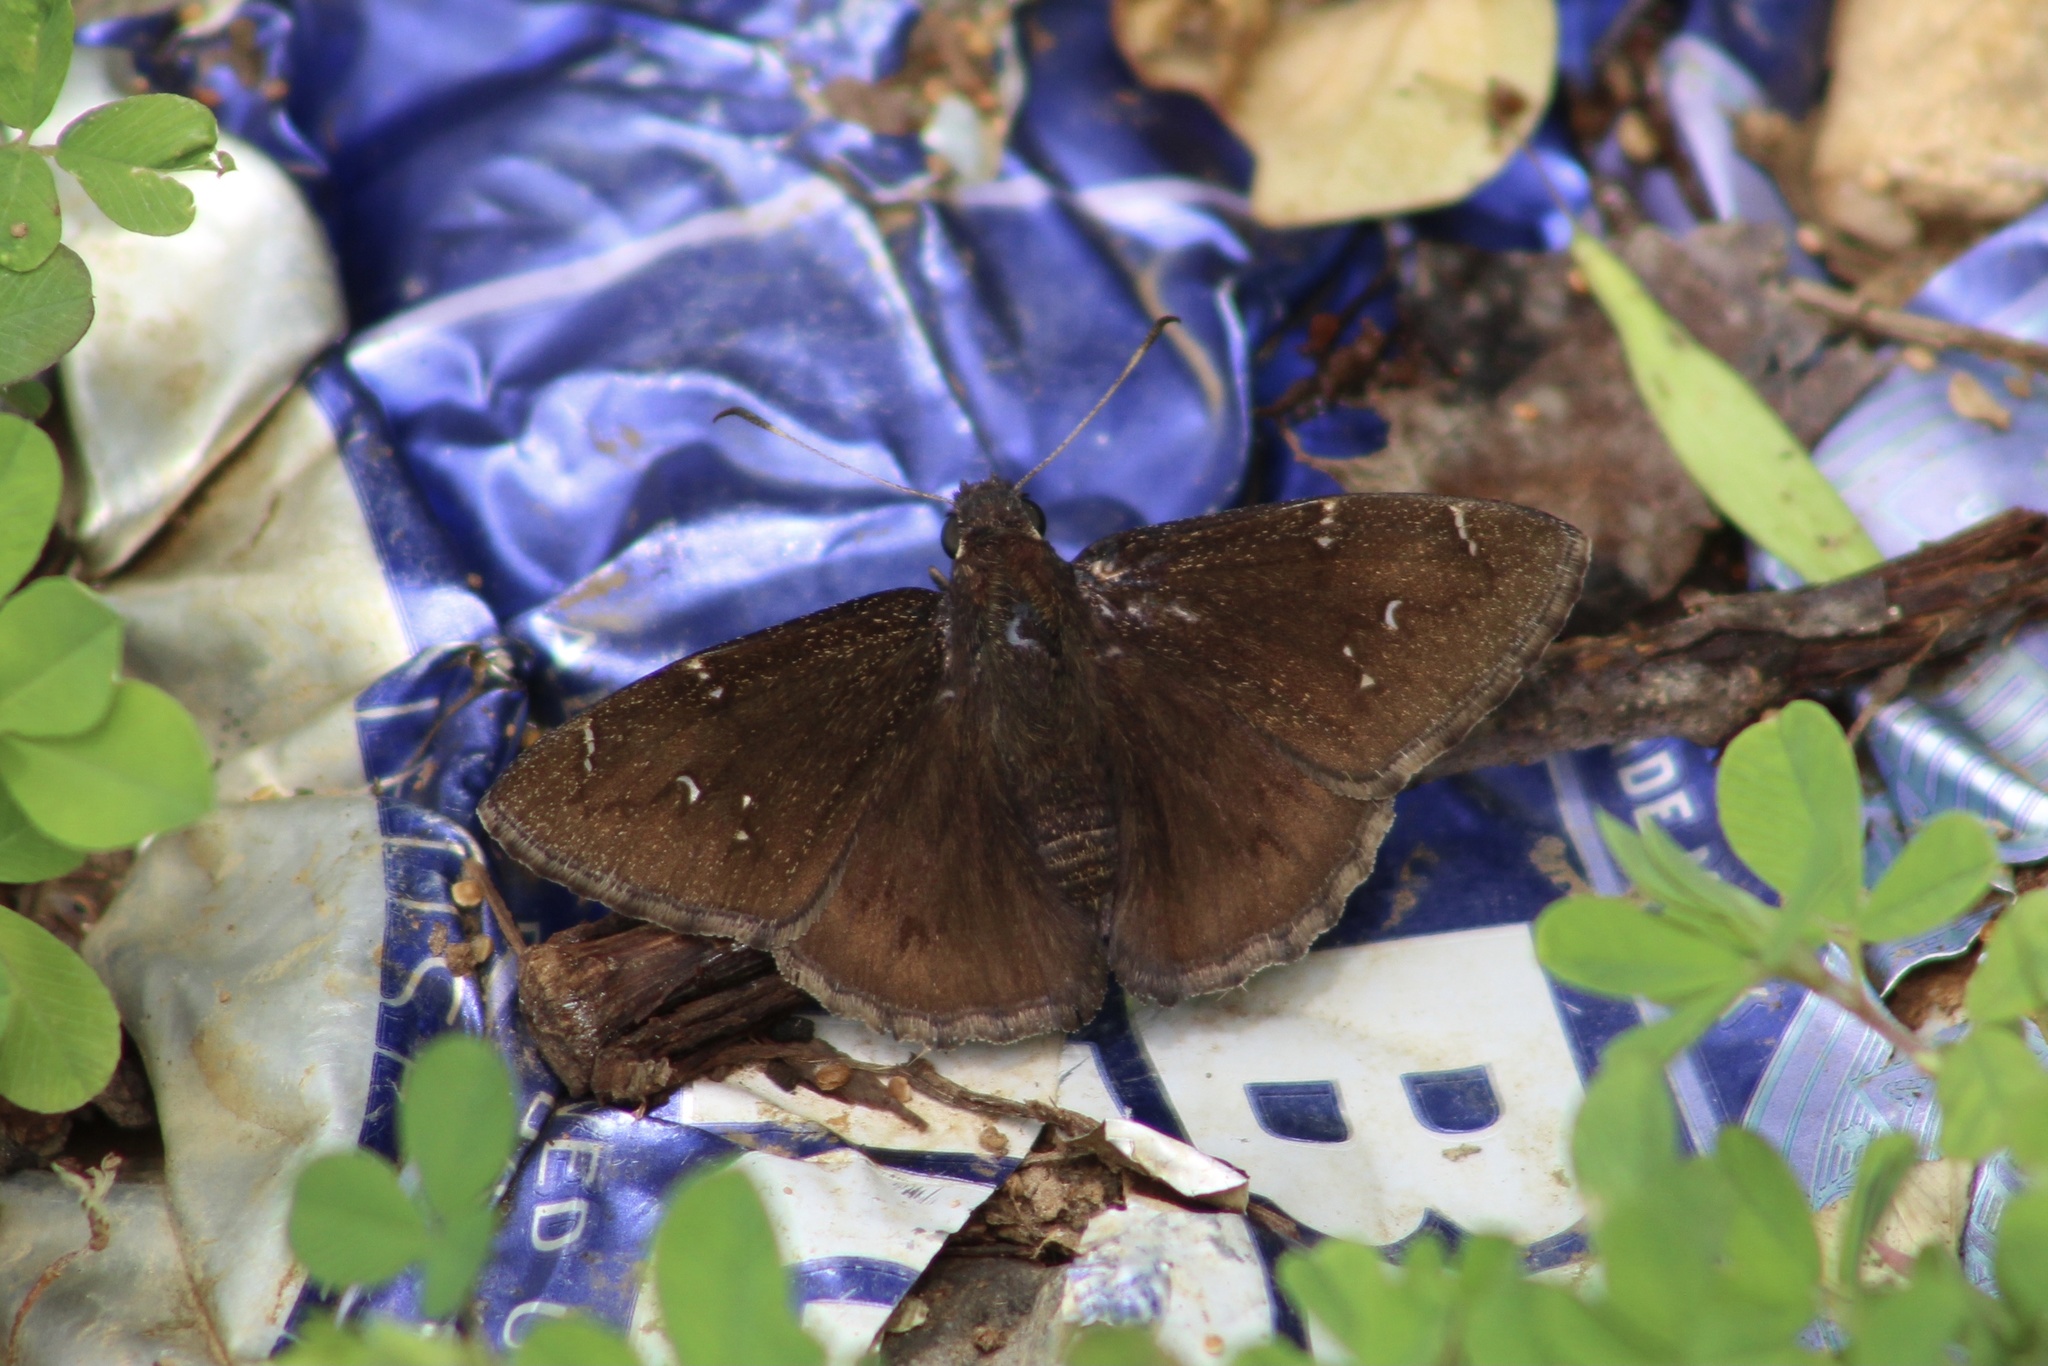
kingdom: Animalia
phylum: Arthropoda
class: Insecta
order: Lepidoptera
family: Hesperiidae
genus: Thorybes
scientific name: Thorybes pylades
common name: Northern cloudywing
